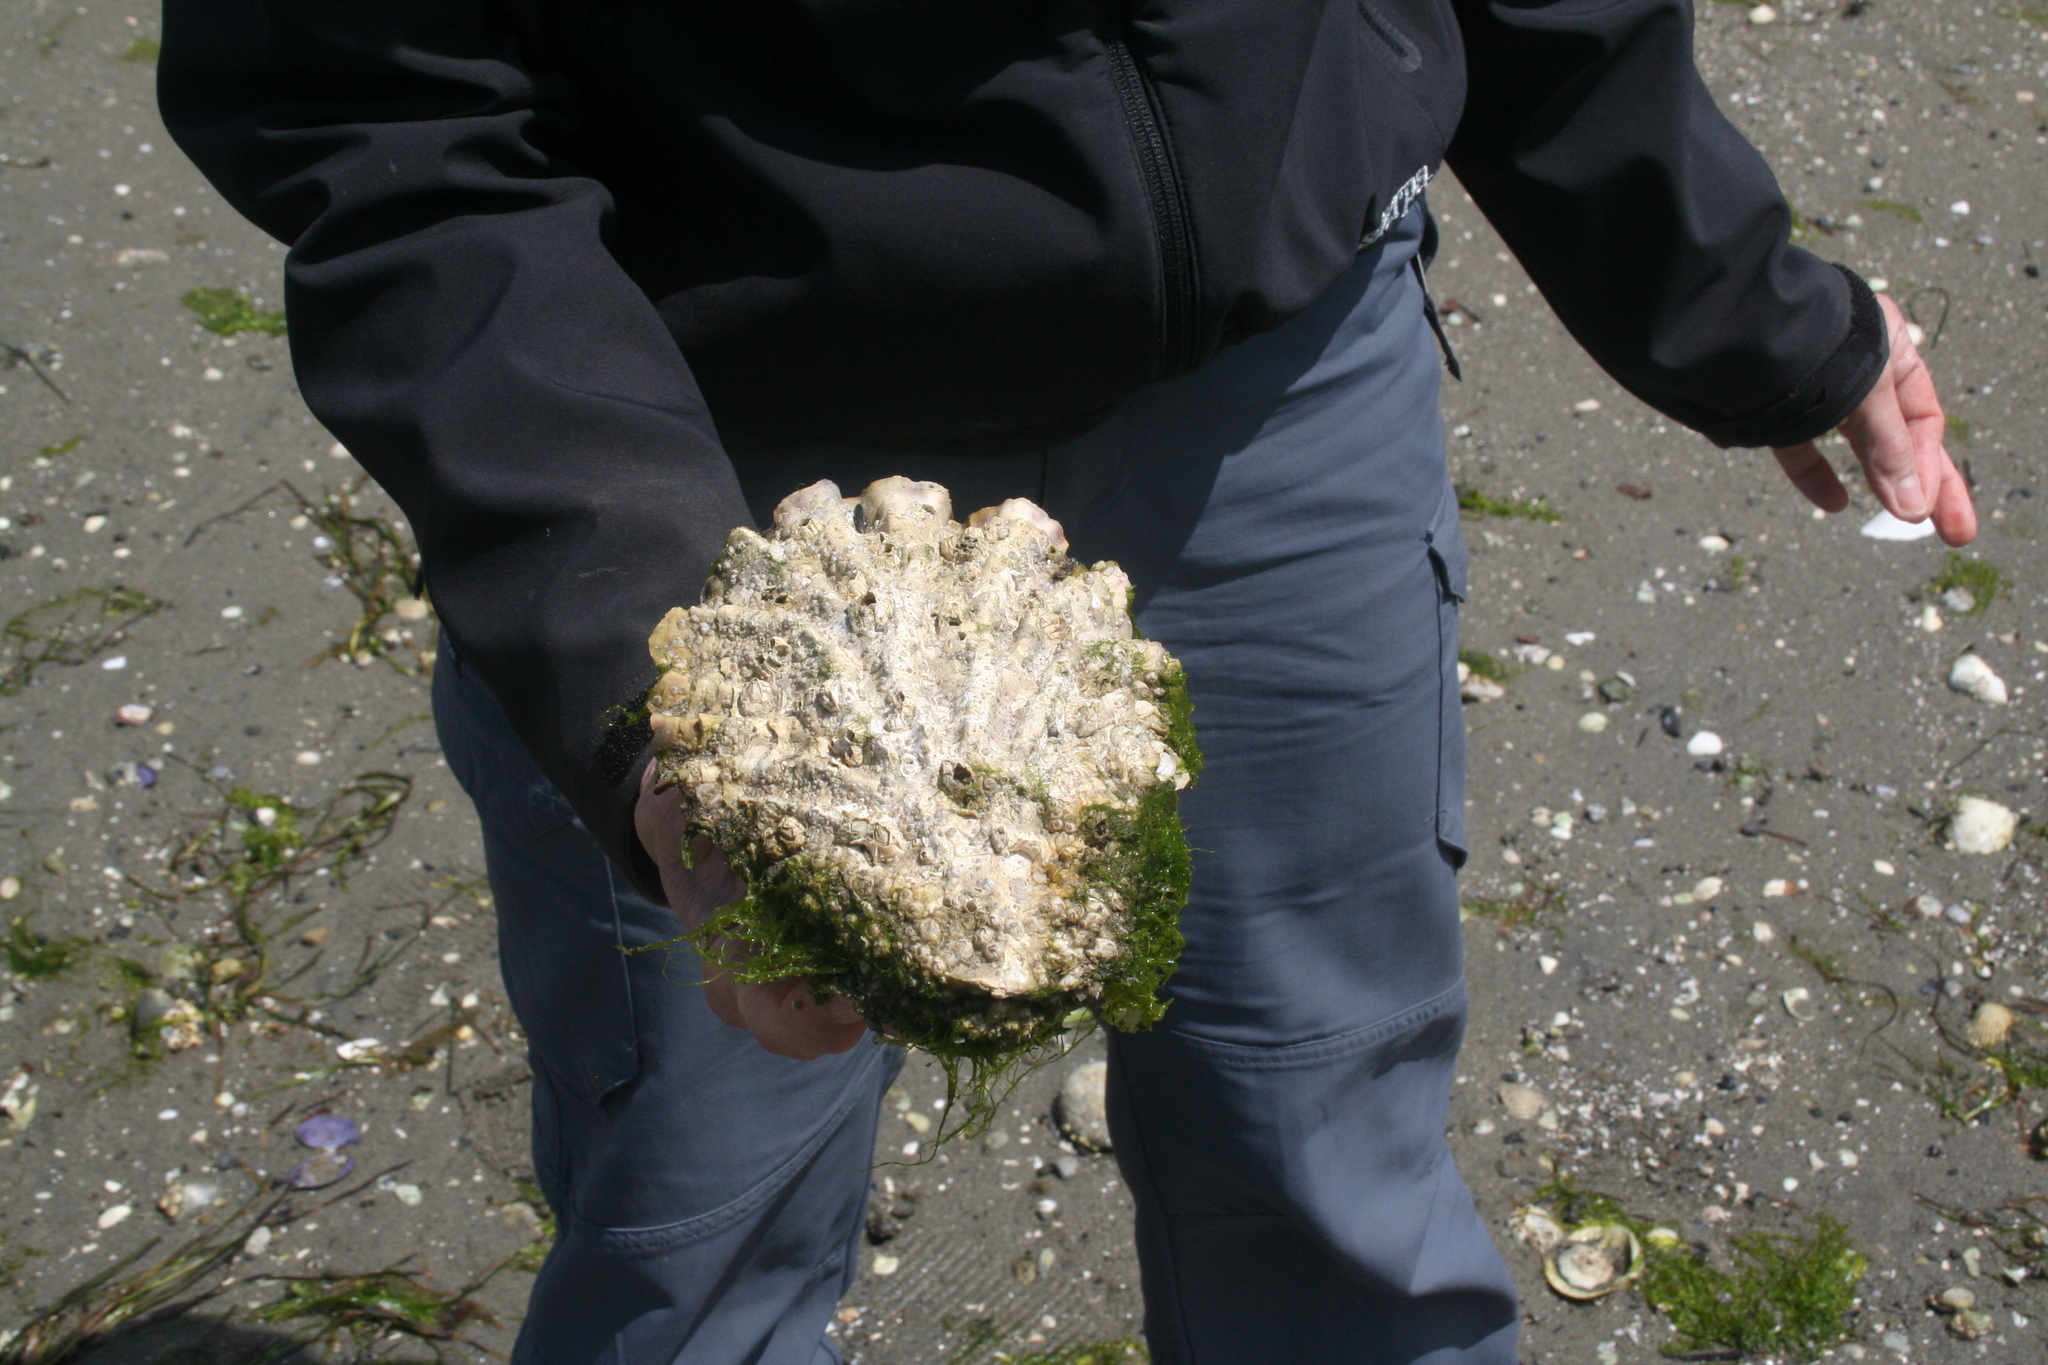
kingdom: Animalia
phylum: Mollusca
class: Bivalvia
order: Ostreida
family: Ostreidae
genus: Magallana
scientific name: Magallana gigas
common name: Pacific oyster
